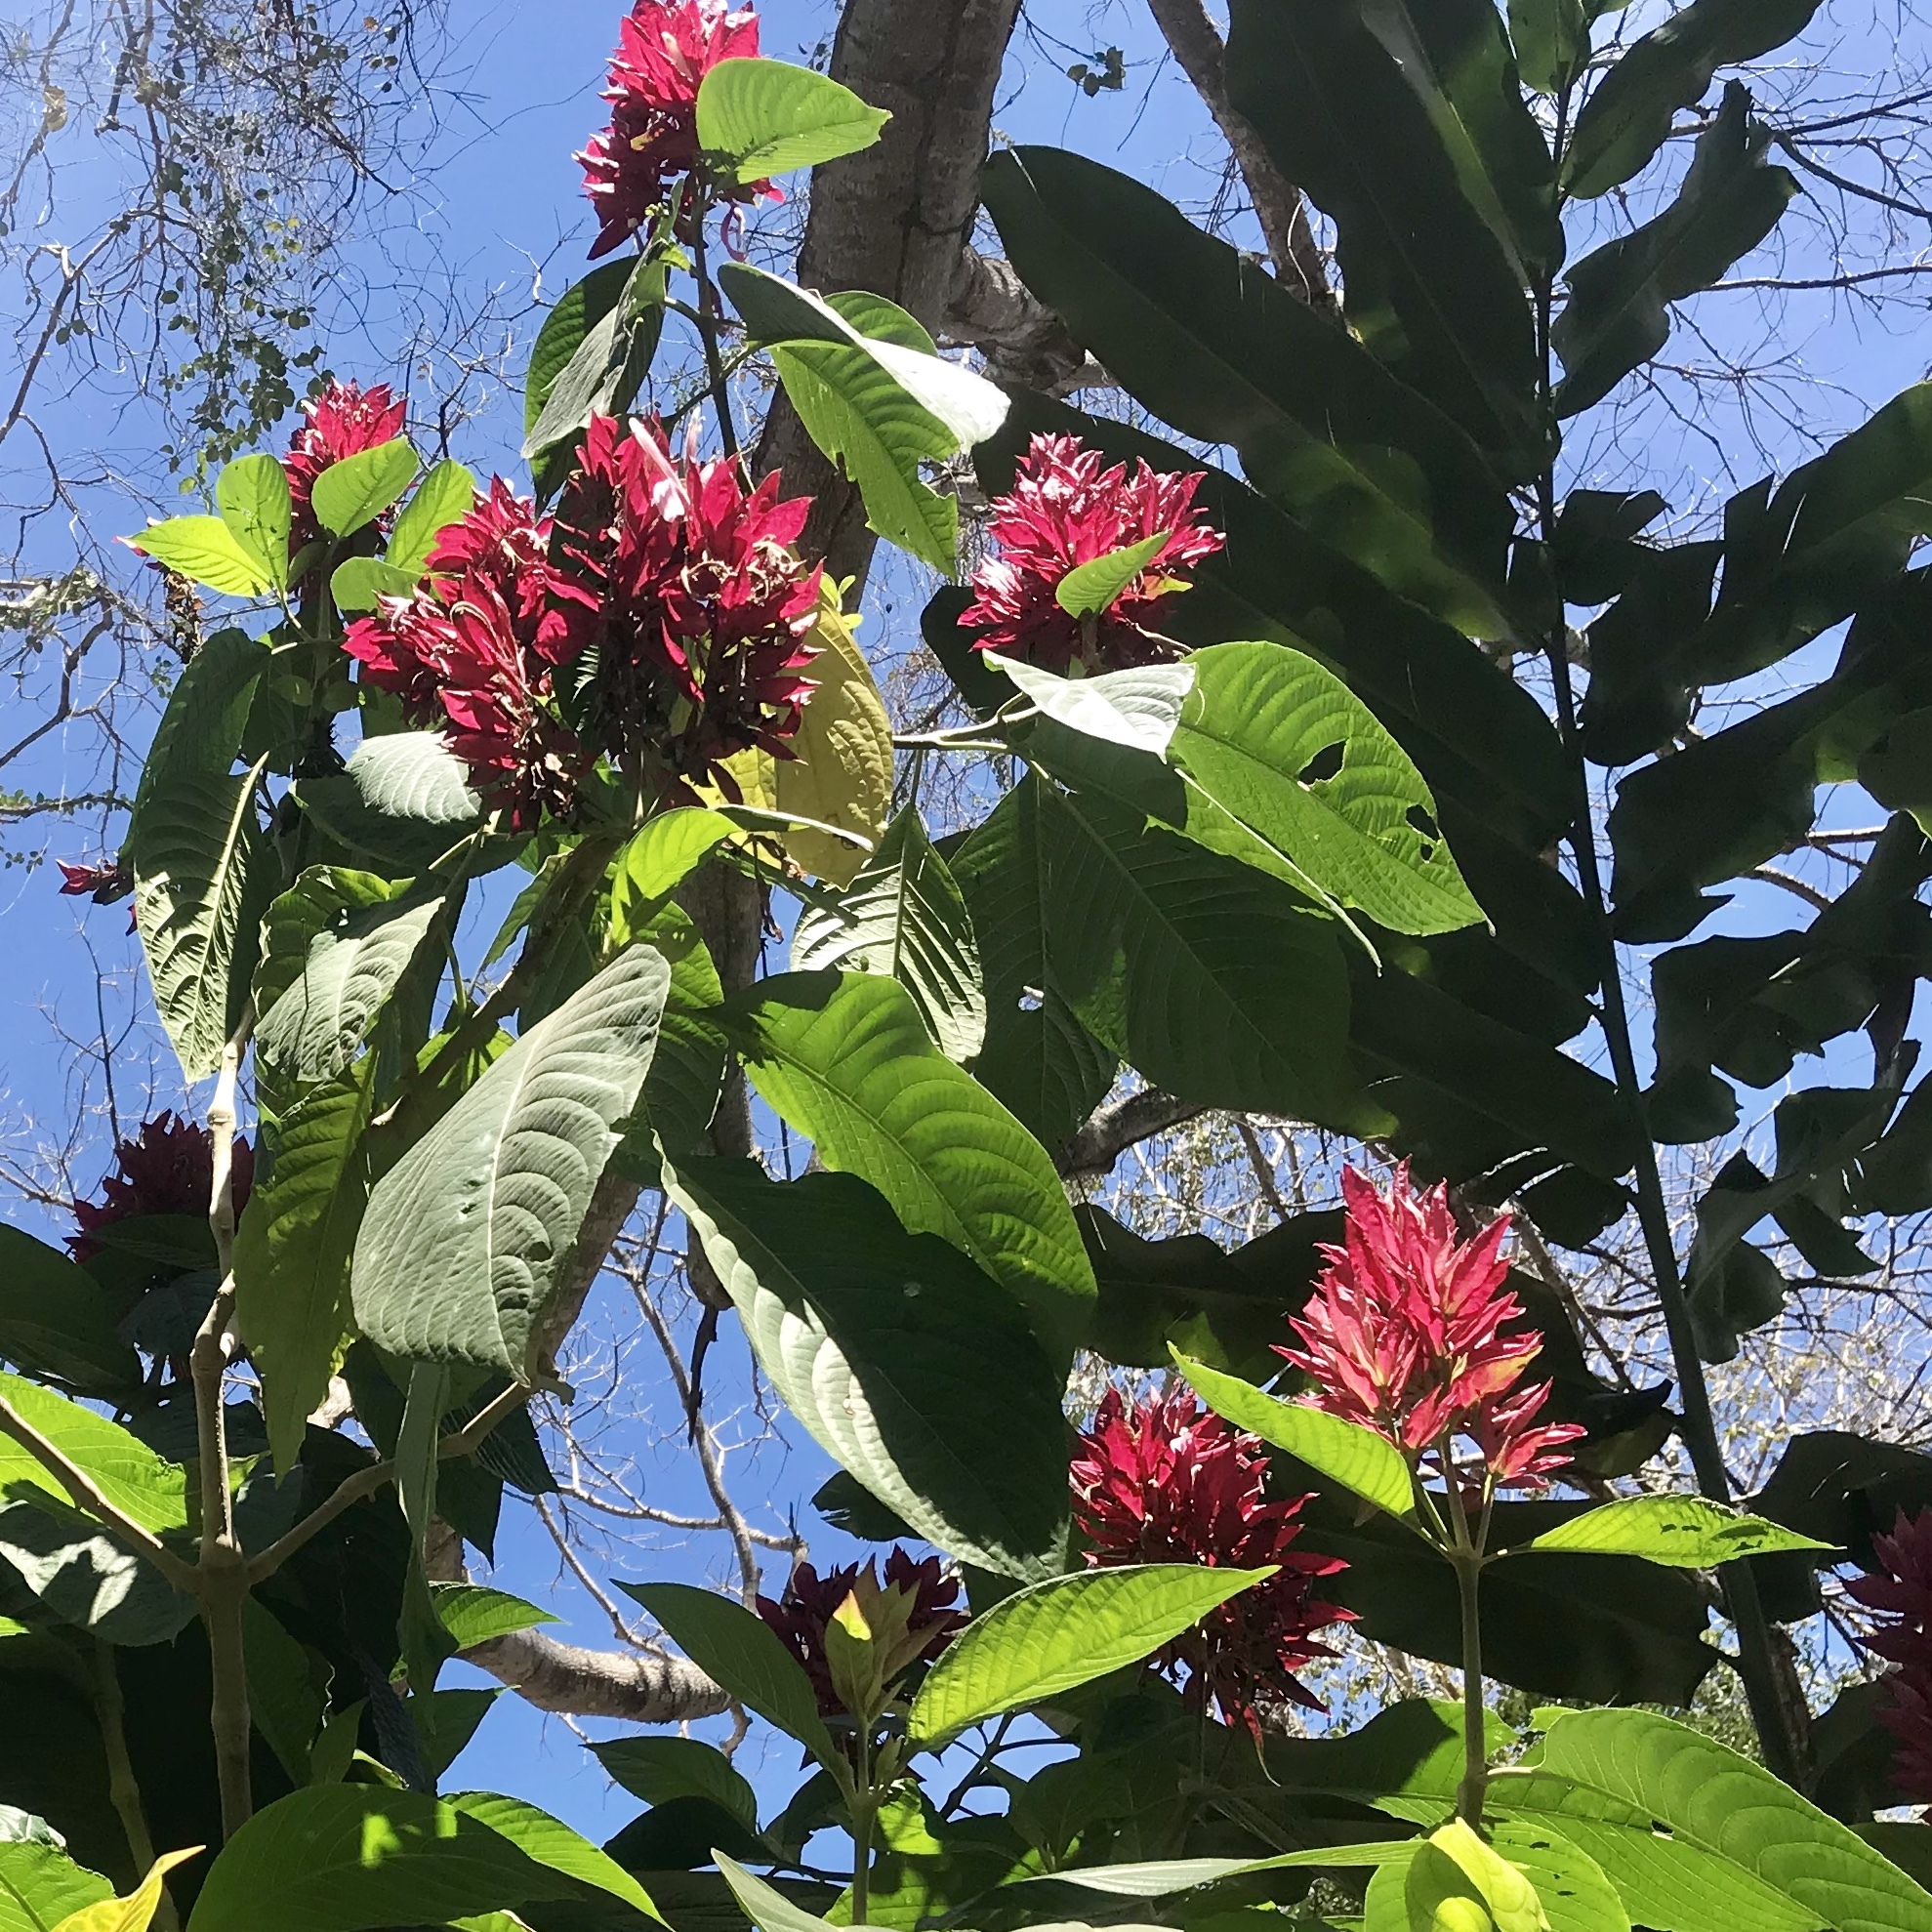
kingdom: Plantae
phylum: Tracheophyta
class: Magnoliopsida
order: Lamiales
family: Acanthaceae
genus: Megaskepasma
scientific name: Megaskepasma erythrochlamys
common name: Brazilian red-cloak
